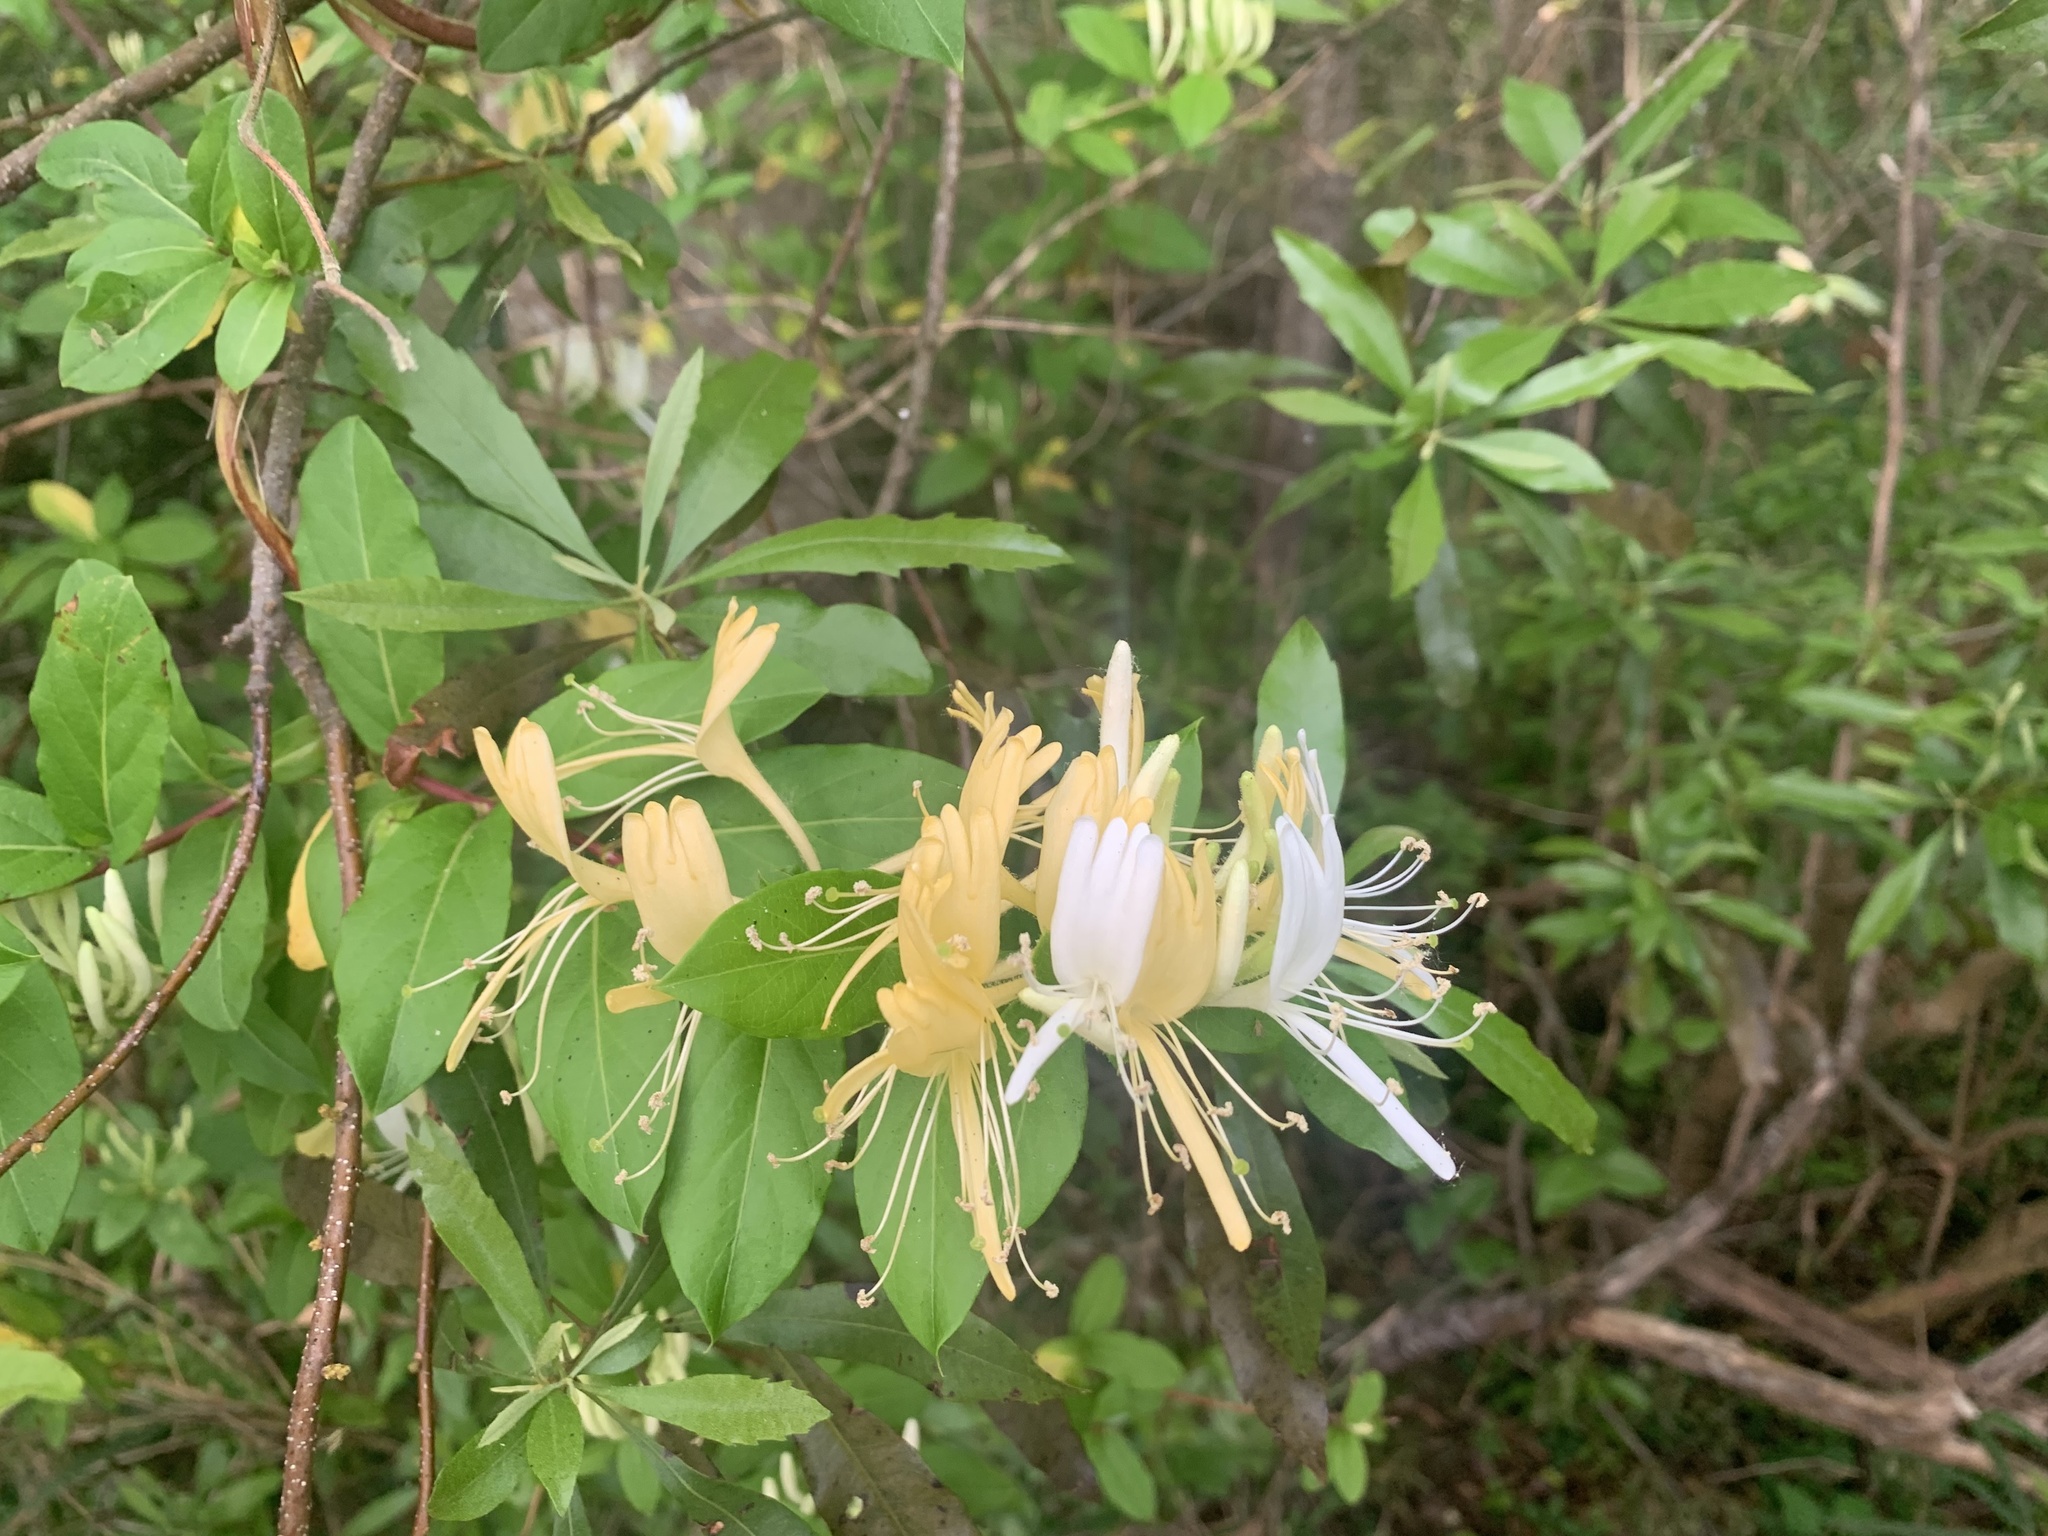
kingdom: Plantae
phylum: Tracheophyta
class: Magnoliopsida
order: Dipsacales
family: Caprifoliaceae
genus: Lonicera
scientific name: Lonicera japonica
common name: Japanese honeysuckle
